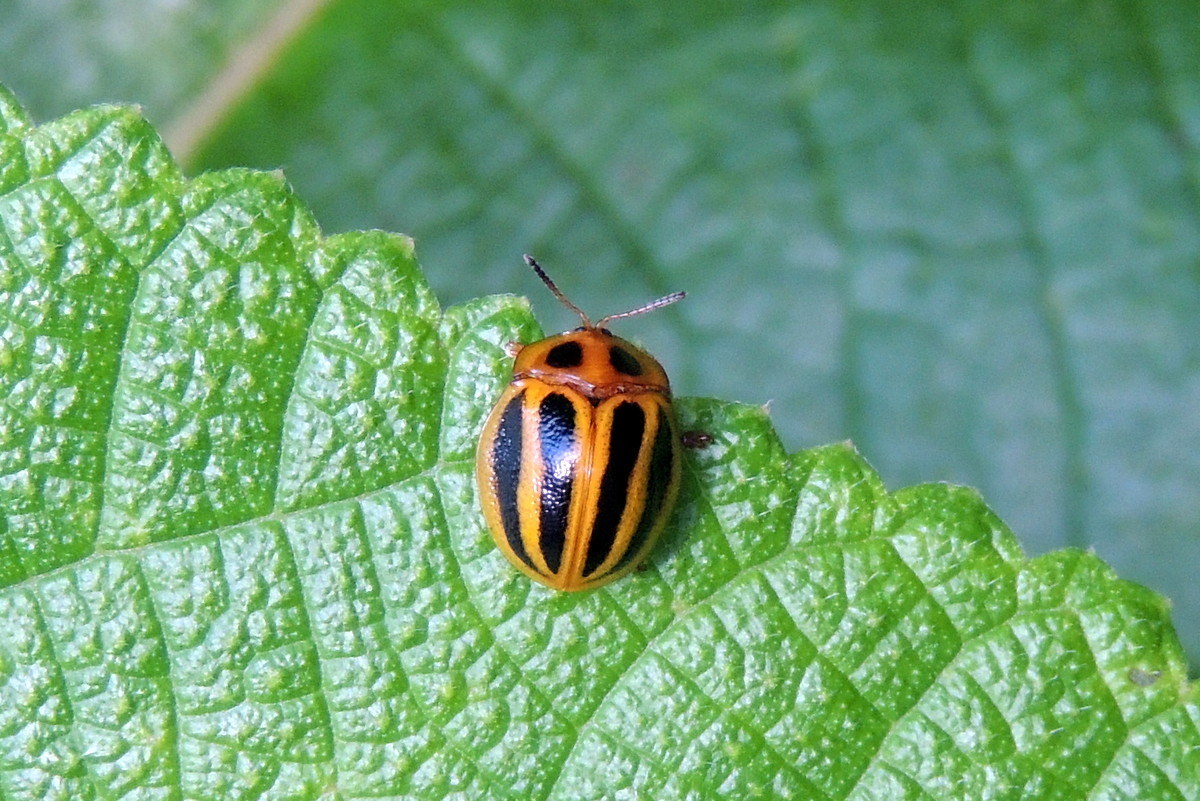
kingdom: Animalia
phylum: Arthropoda
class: Insecta
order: Coleoptera
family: Chrysomelidae
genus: Chelymorpha
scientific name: Chelymorpha militaris
